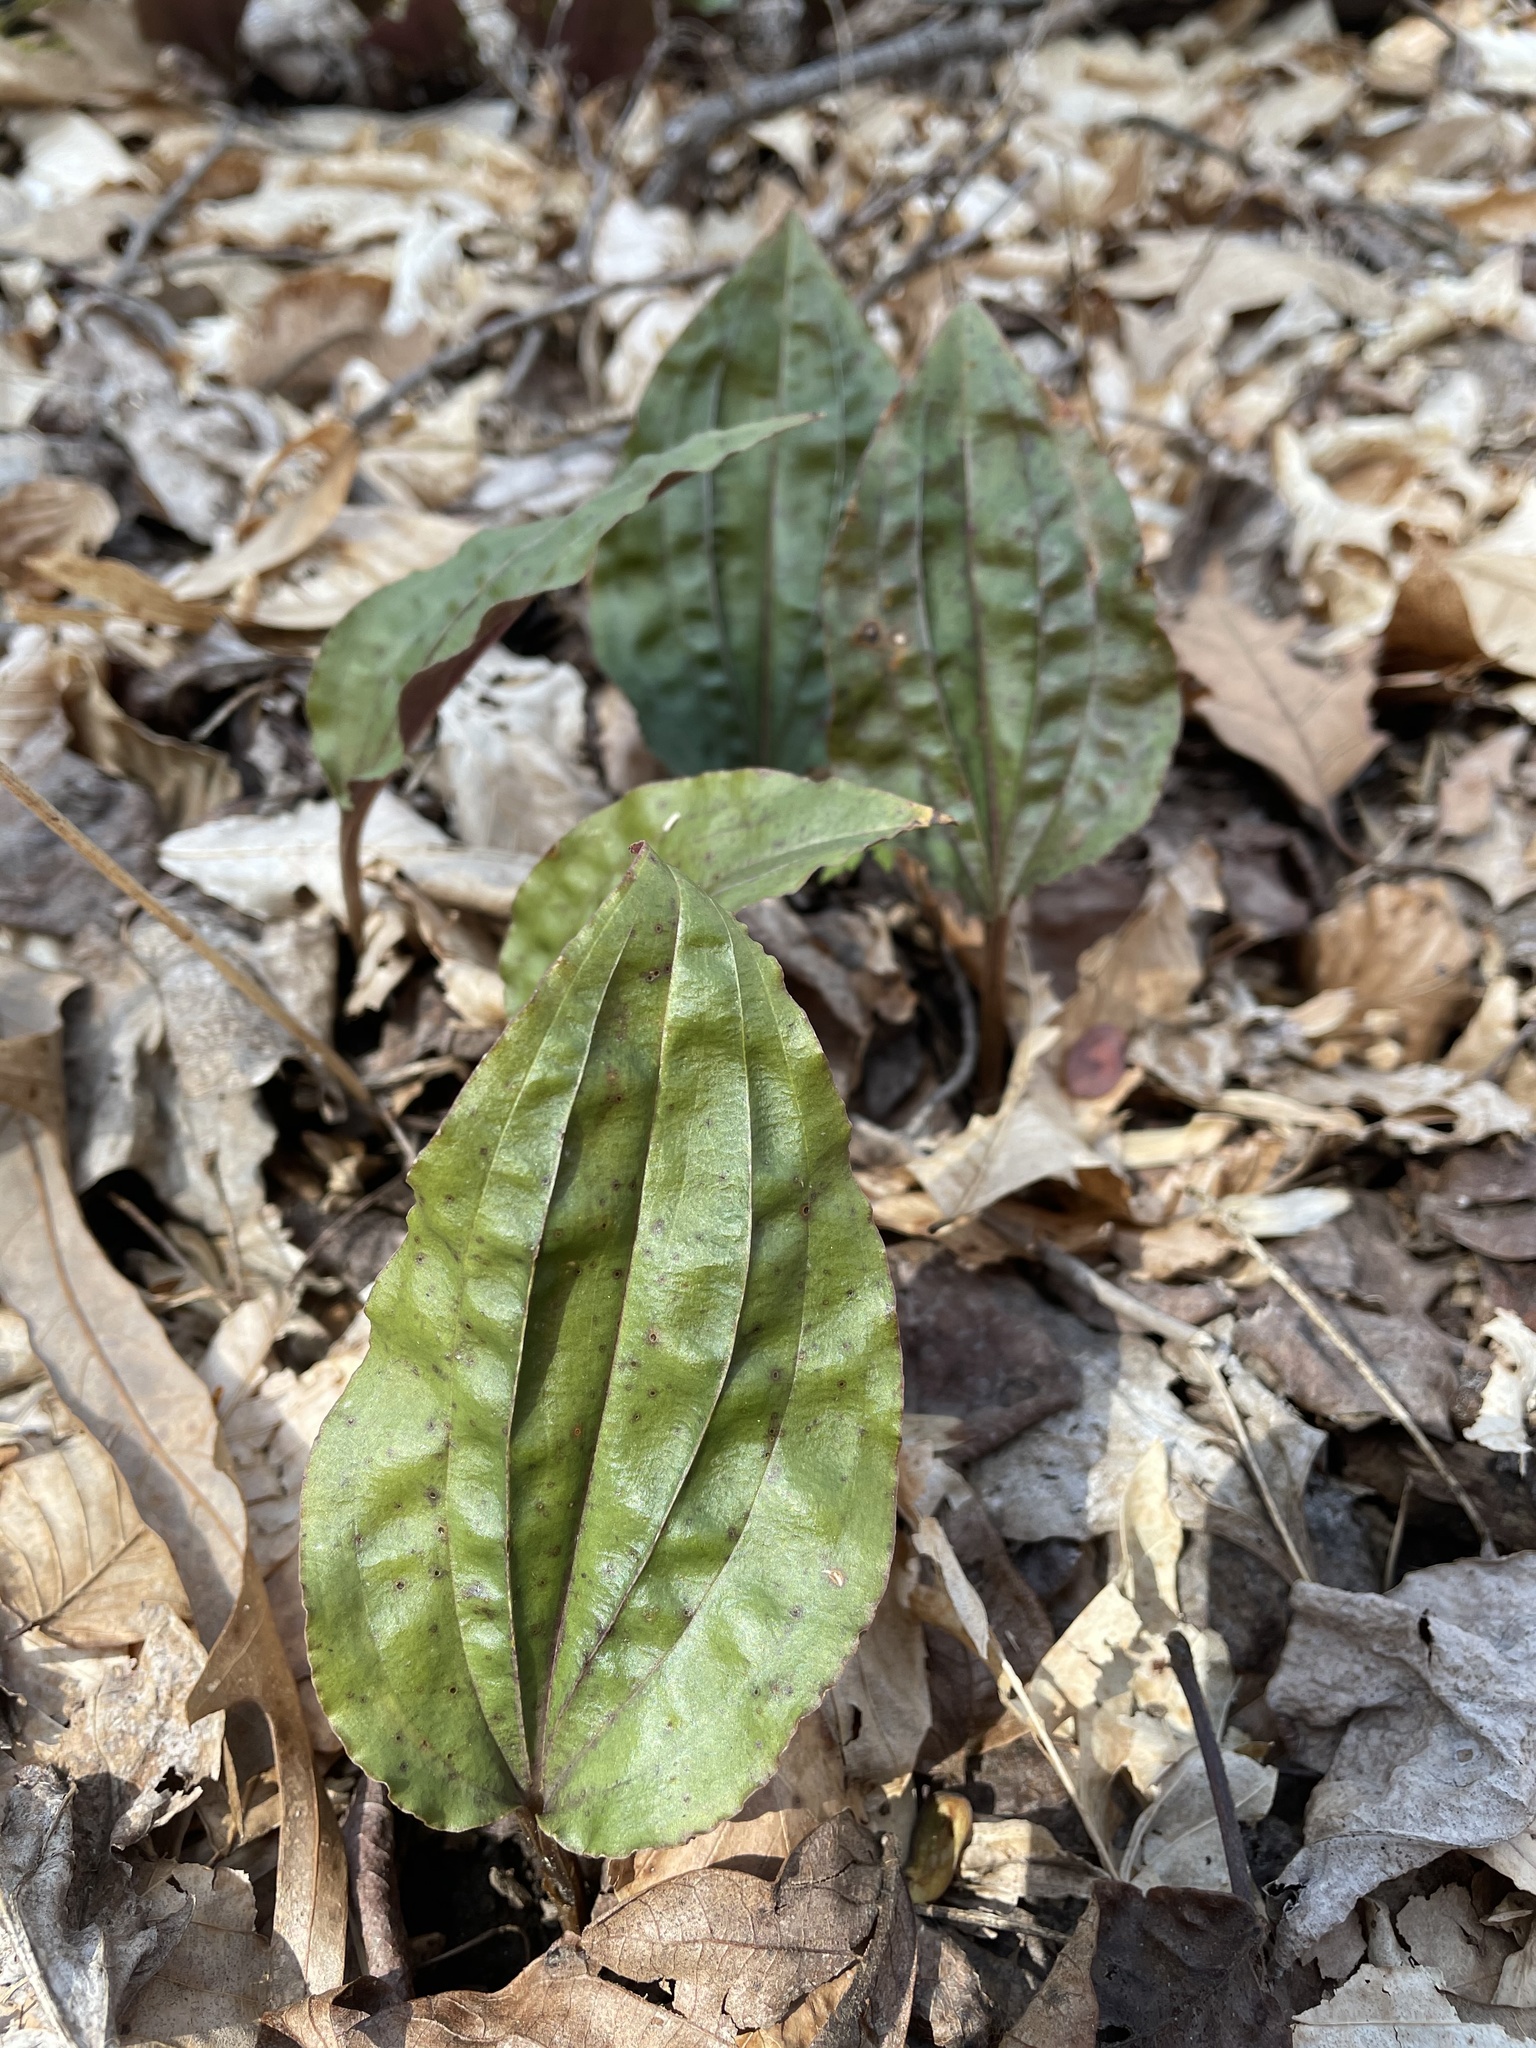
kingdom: Plantae
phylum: Tracheophyta
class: Liliopsida
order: Asparagales
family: Orchidaceae
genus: Tipularia
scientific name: Tipularia discolor
